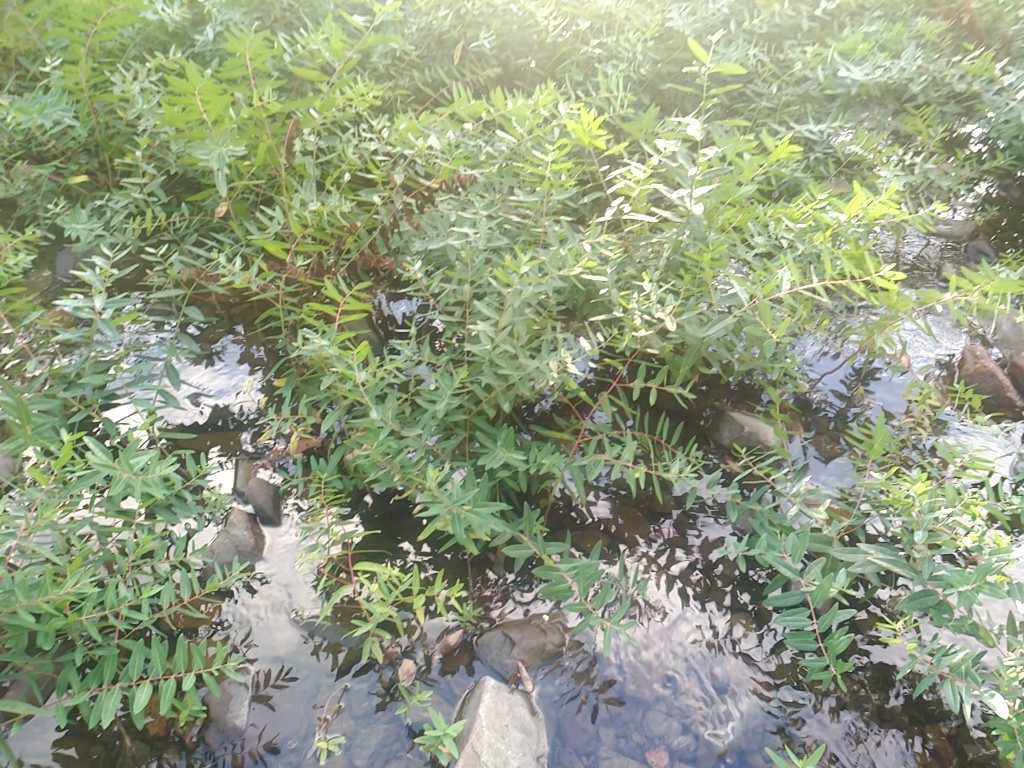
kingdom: Plantae
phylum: Tracheophyta
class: Magnoliopsida
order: Myrtales
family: Lythraceae
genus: Decodon
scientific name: Decodon verticillatus
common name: Hairy swamp loosestrife
